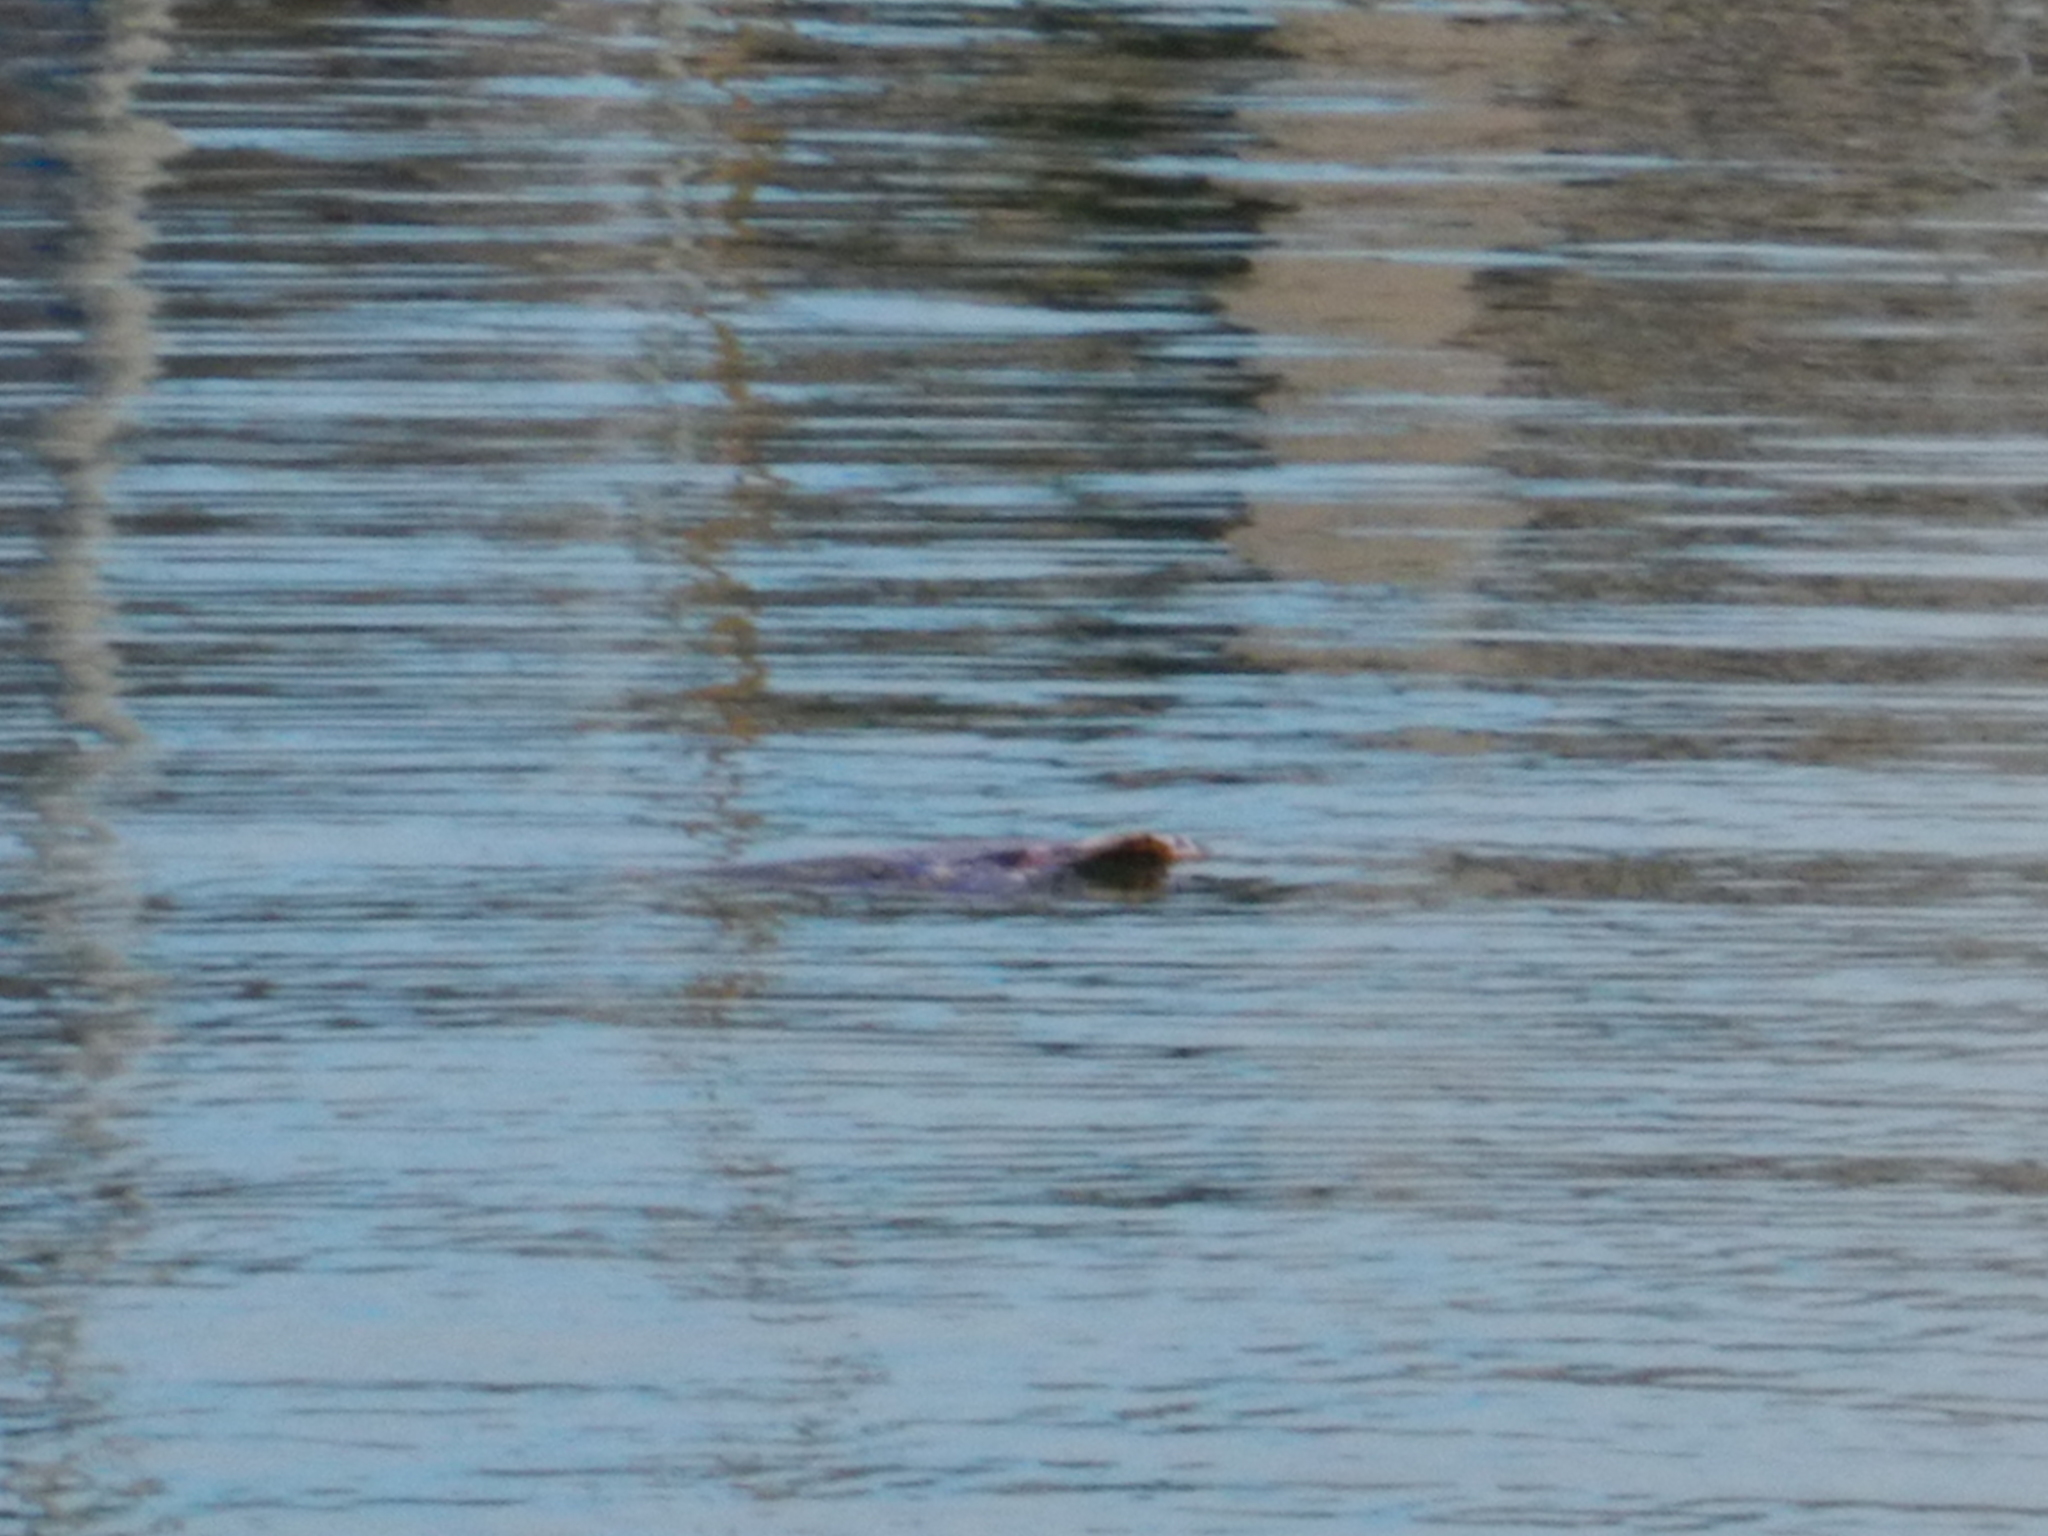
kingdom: Animalia
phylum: Chordata
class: Testudines
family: Cheloniidae
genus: Caretta
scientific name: Caretta caretta
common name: Loggerhead sea turtle
